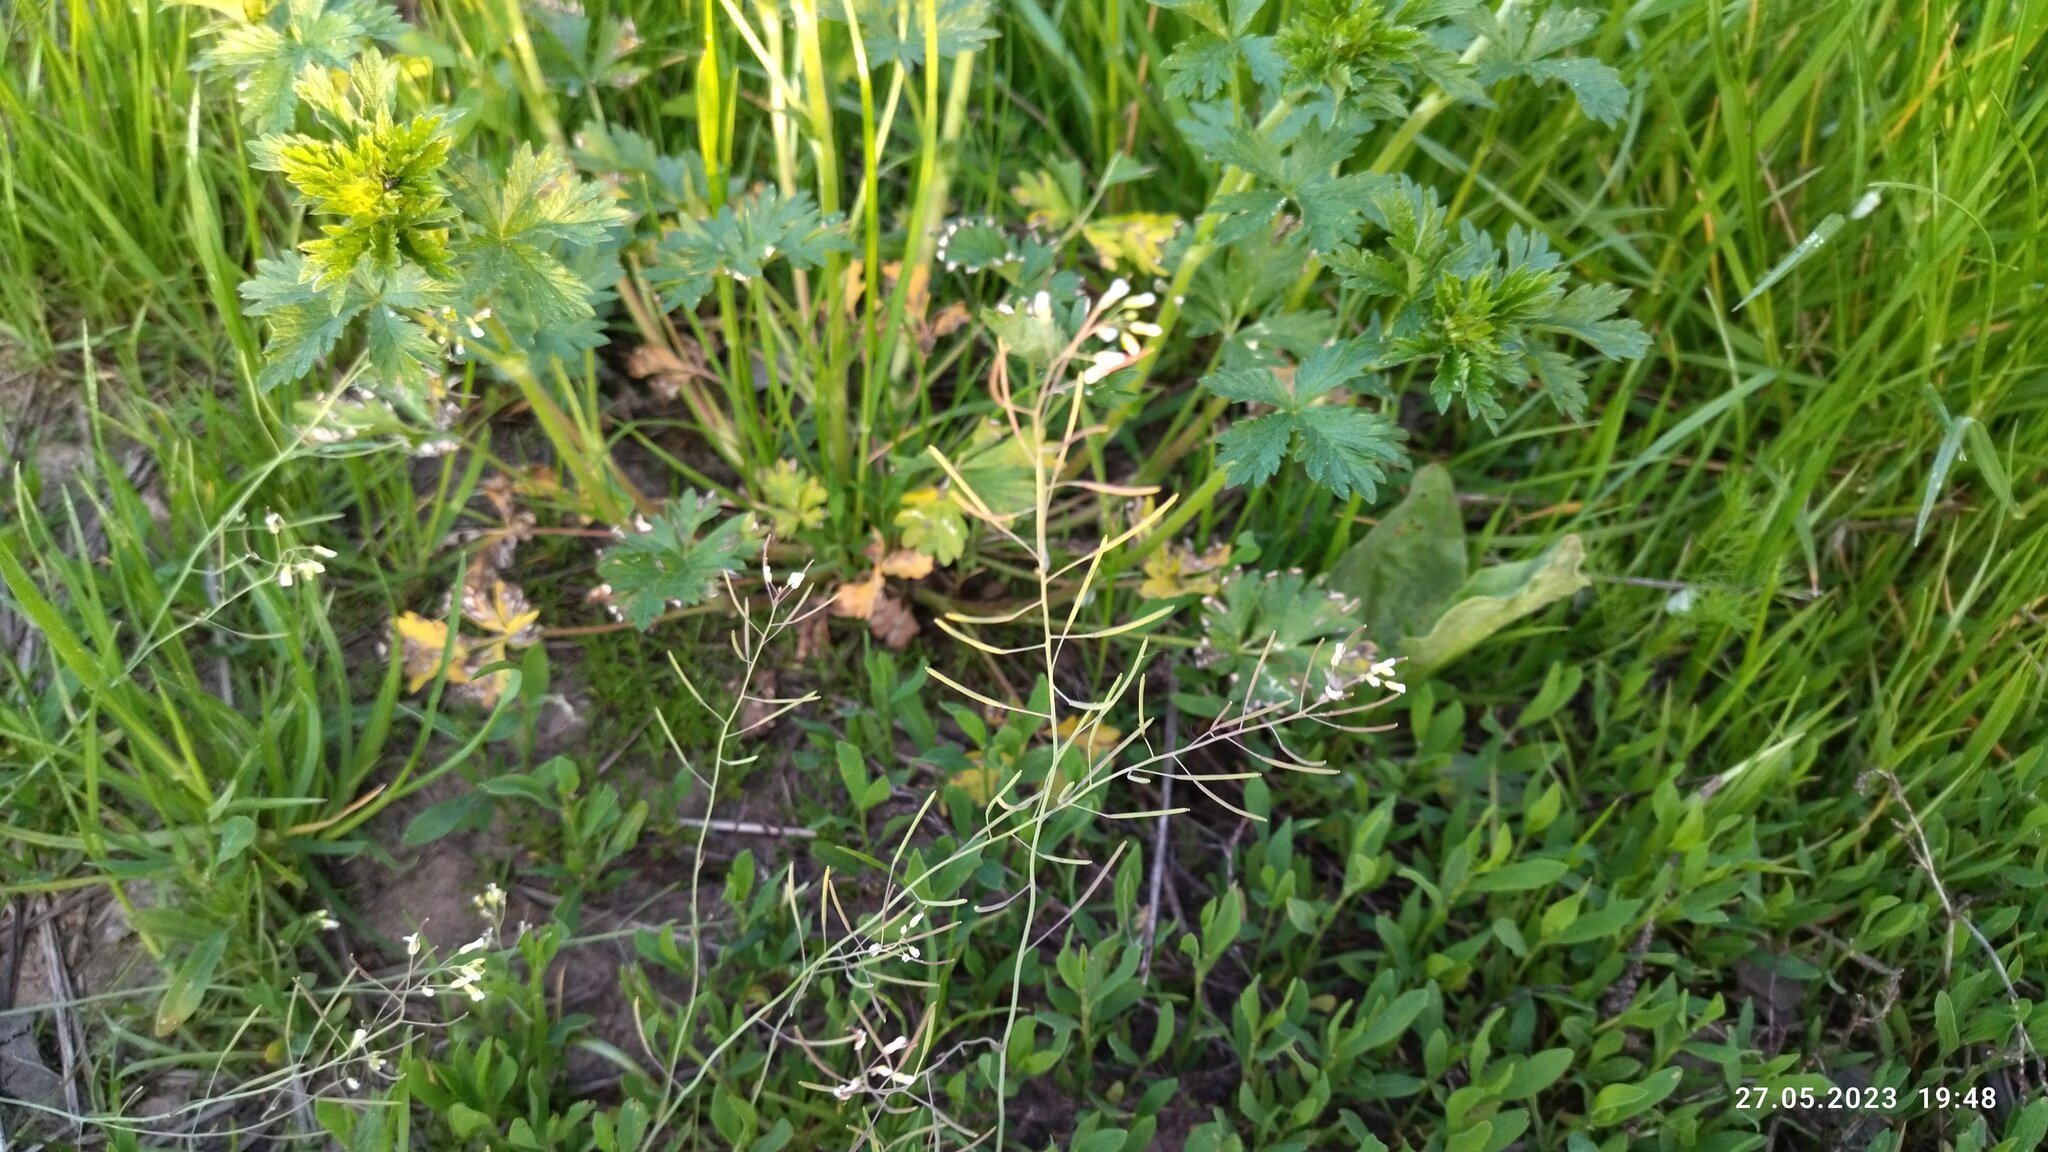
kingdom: Plantae
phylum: Tracheophyta
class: Magnoliopsida
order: Brassicales
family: Brassicaceae
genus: Arabidopsis
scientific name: Arabidopsis thaliana
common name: Thale cress
